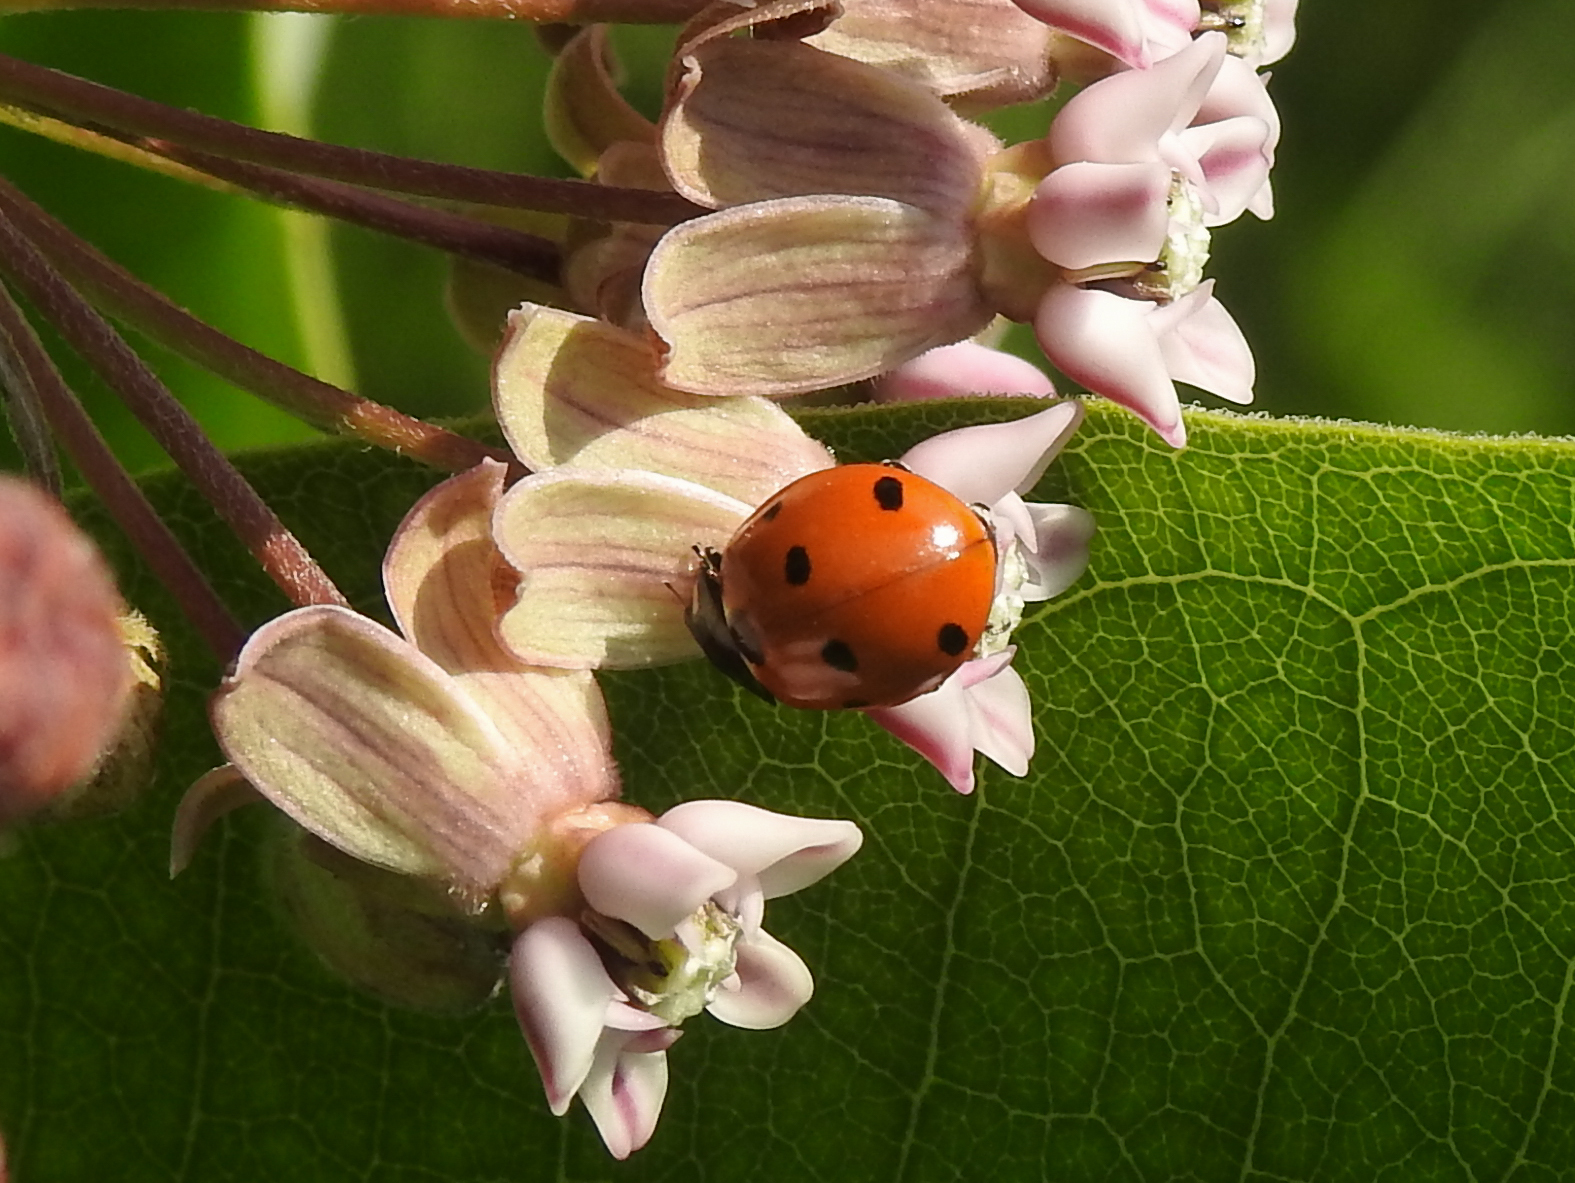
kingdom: Animalia
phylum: Arthropoda
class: Insecta
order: Coleoptera
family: Coccinellidae
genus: Coccinella
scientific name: Coccinella septempunctata
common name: Sevenspotted lady beetle
